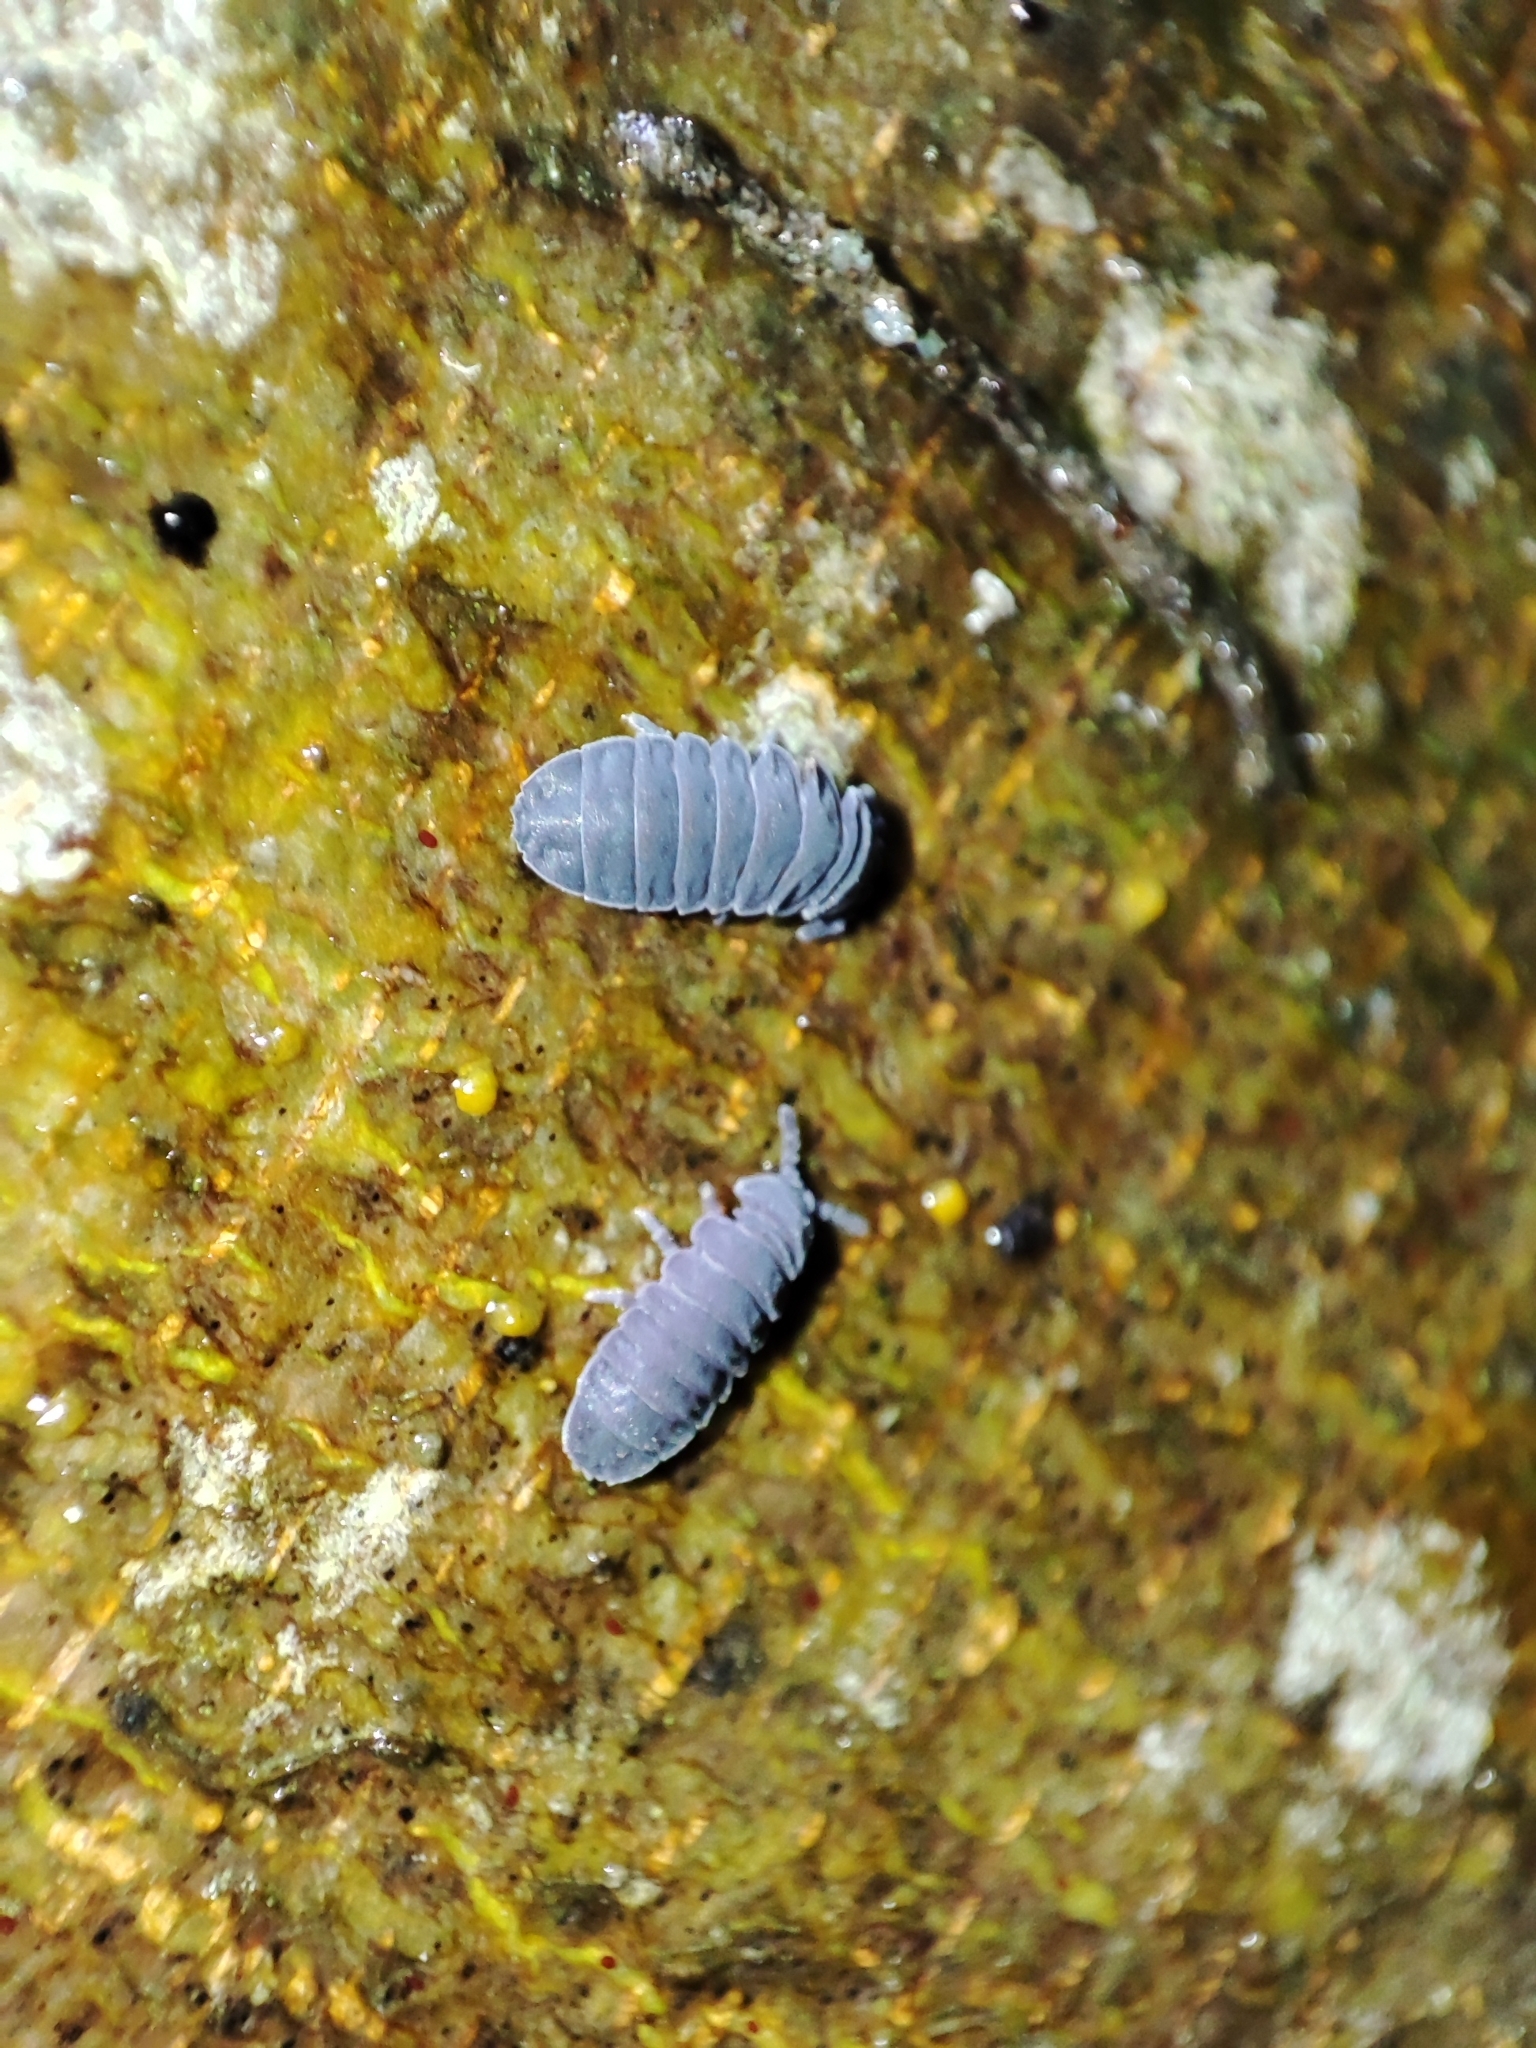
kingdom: Animalia
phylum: Arthropoda
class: Collembola
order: Poduromorpha
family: Onychiuridae
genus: Tetrodontophora
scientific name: Tetrodontophora bielanensis
